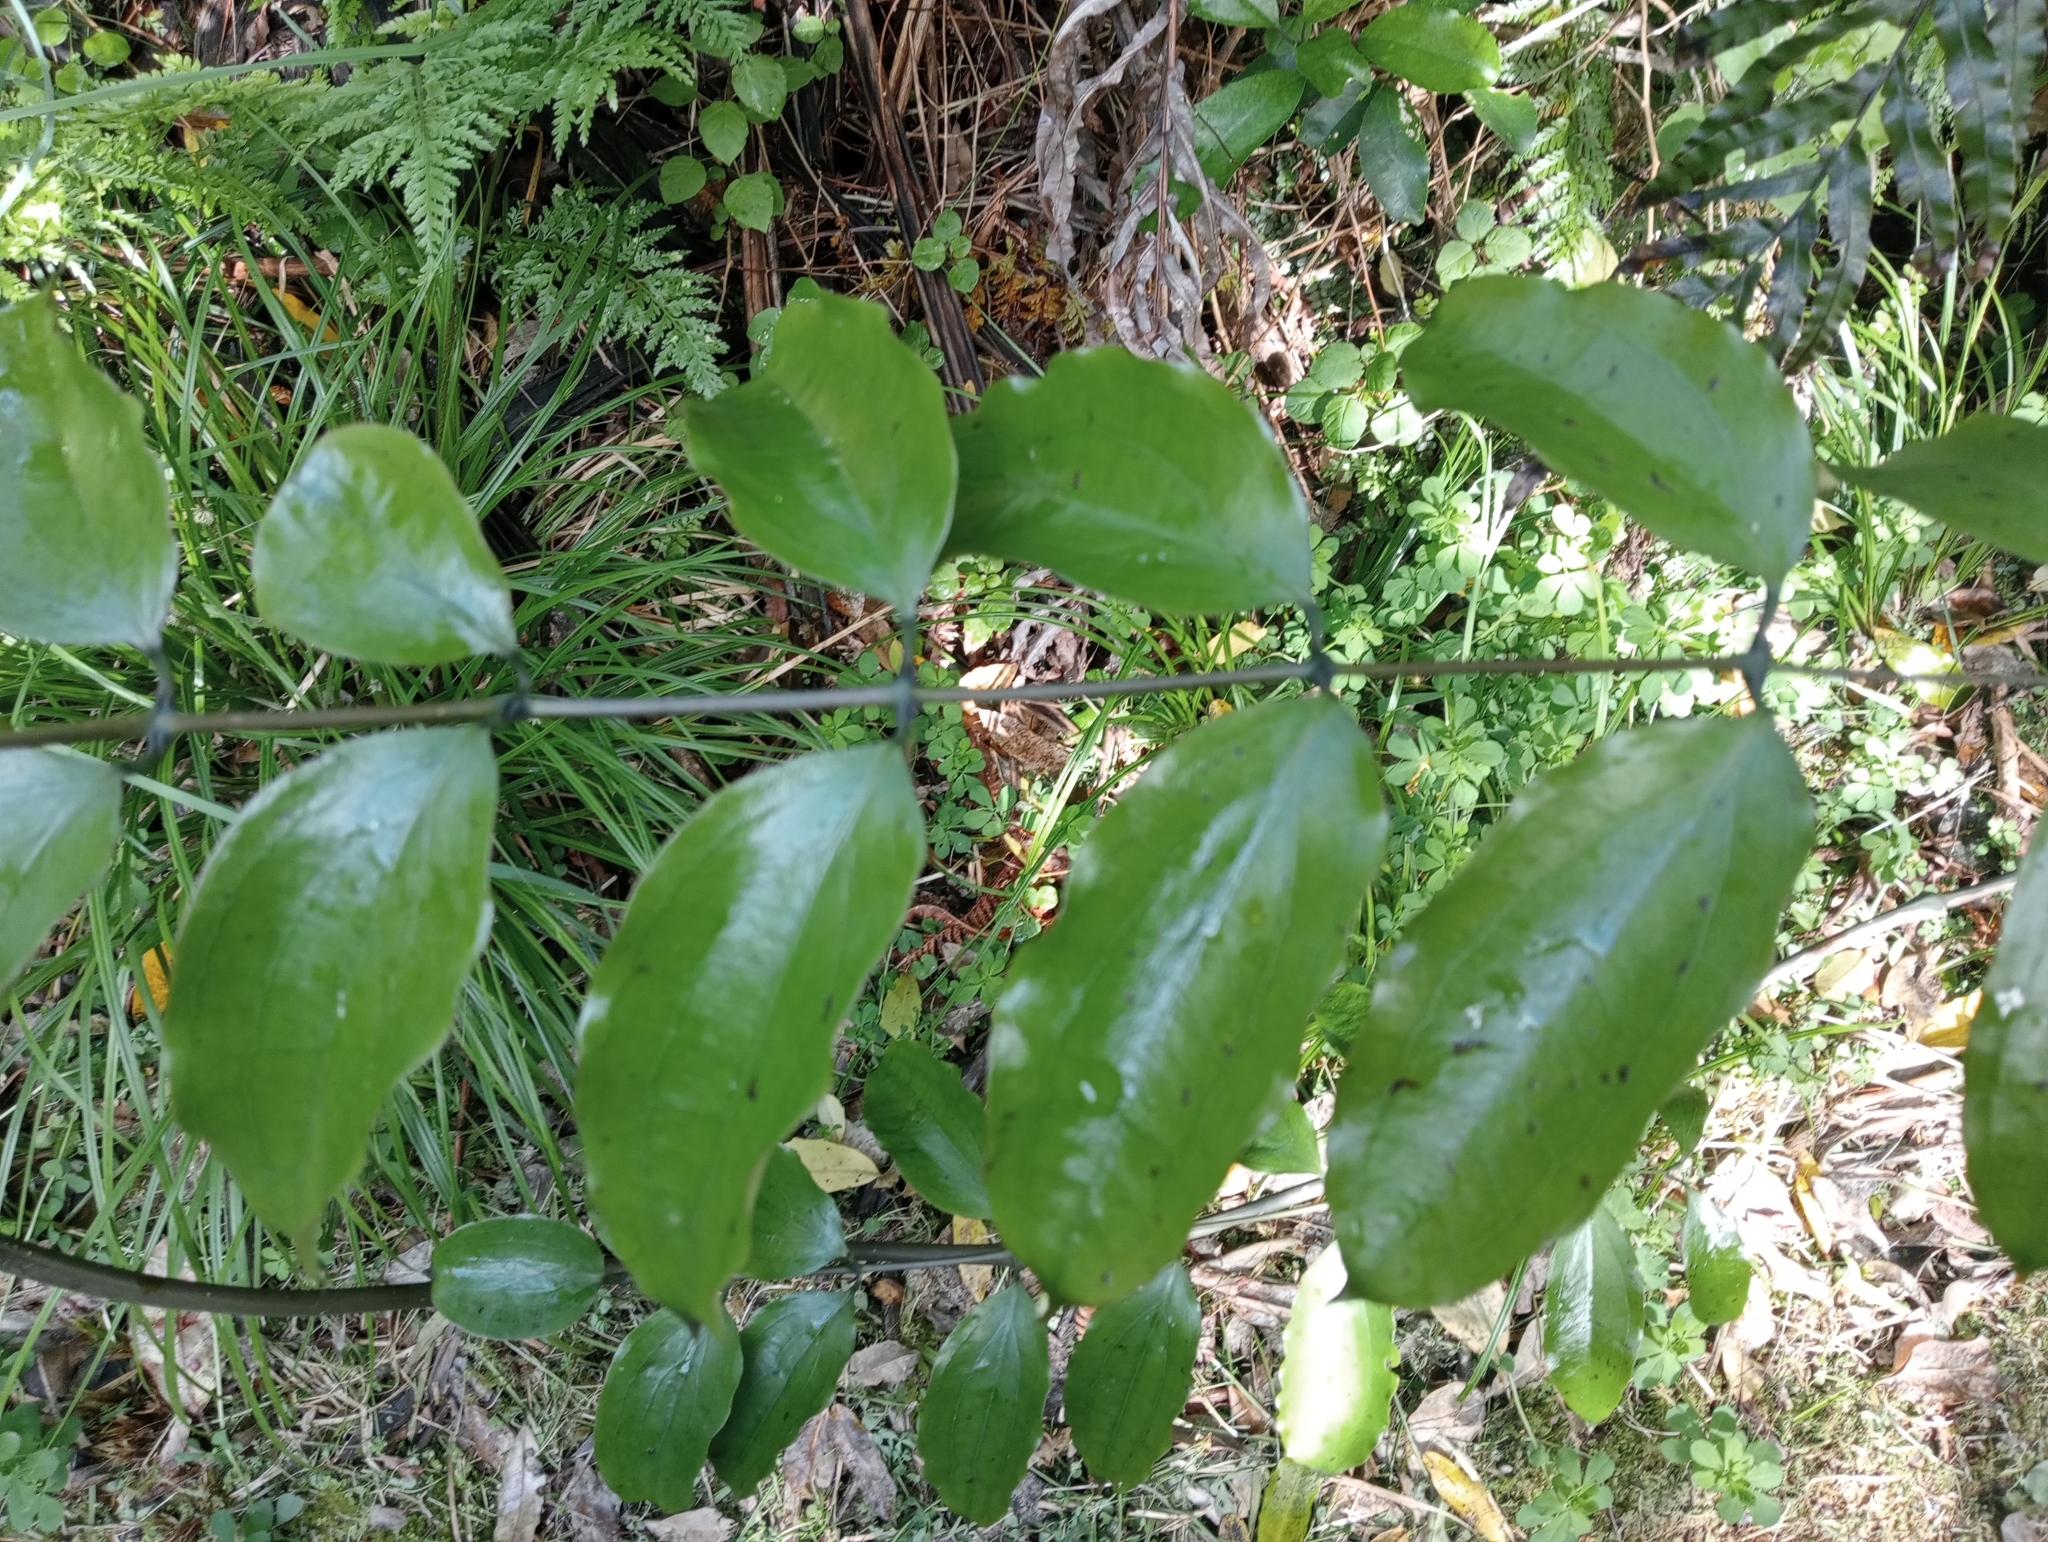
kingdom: Plantae
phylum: Tracheophyta
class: Liliopsida
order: Liliales
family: Ripogonaceae
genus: Ripogonum
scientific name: Ripogonum scandens
